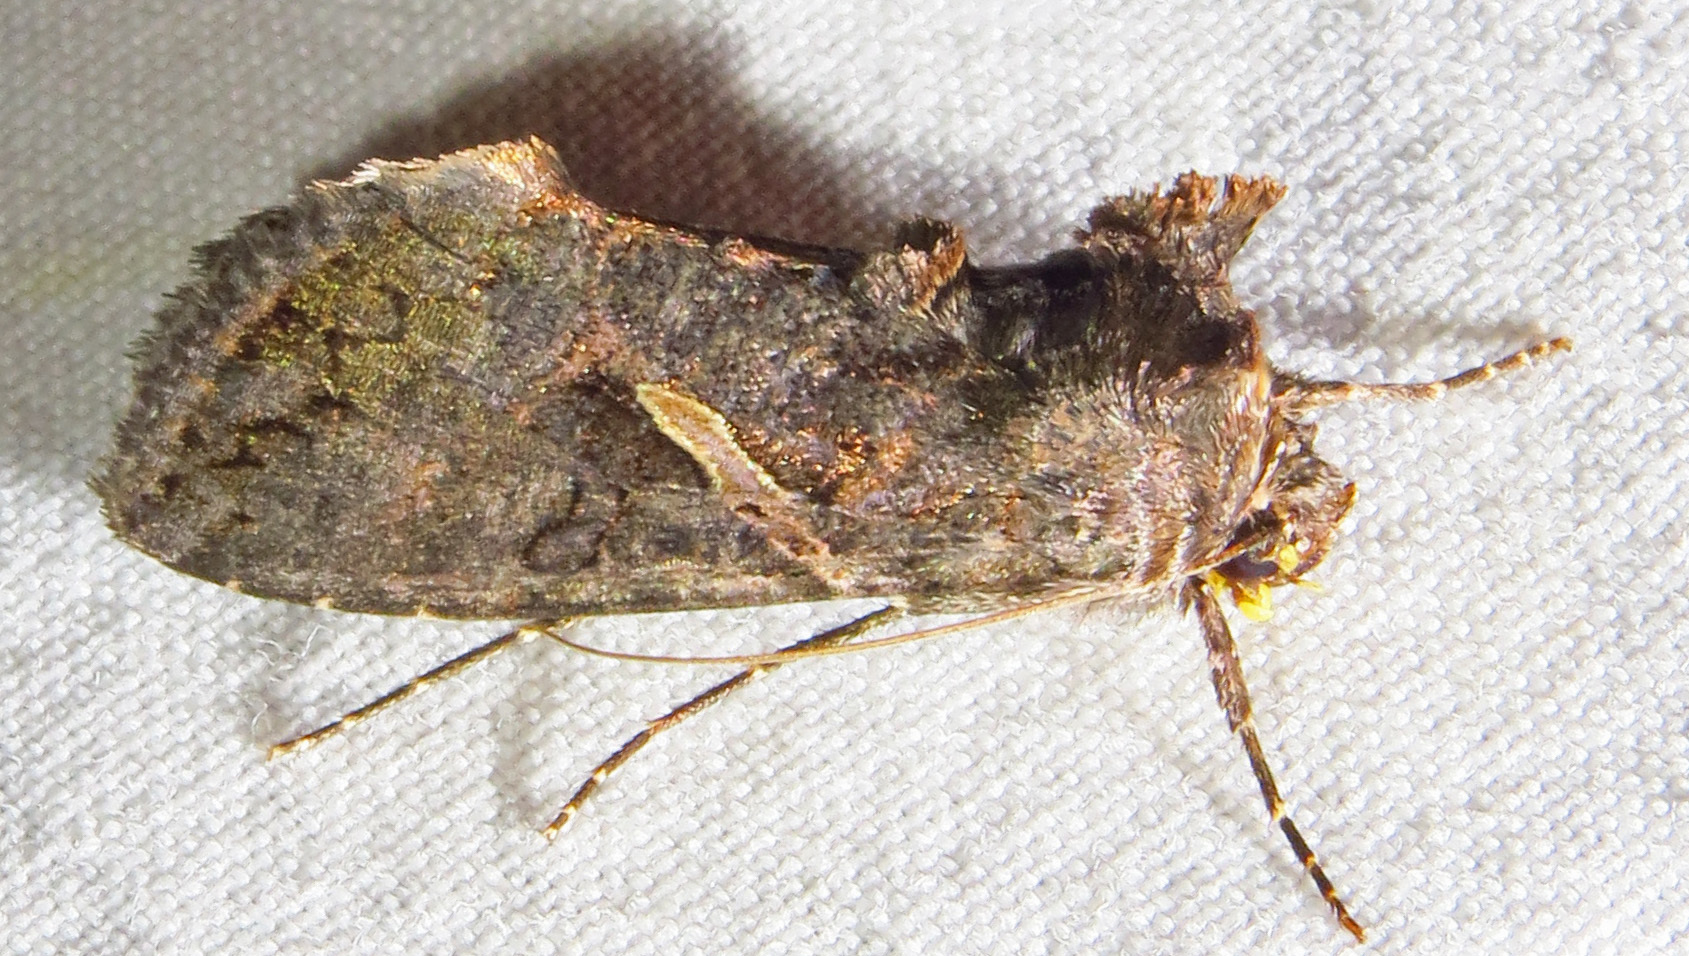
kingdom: Animalia
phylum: Arthropoda
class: Insecta
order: Lepidoptera
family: Noctuidae
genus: Ctenoplusia
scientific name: Ctenoplusia oxygramma
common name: Sharp-stigma looper moth
